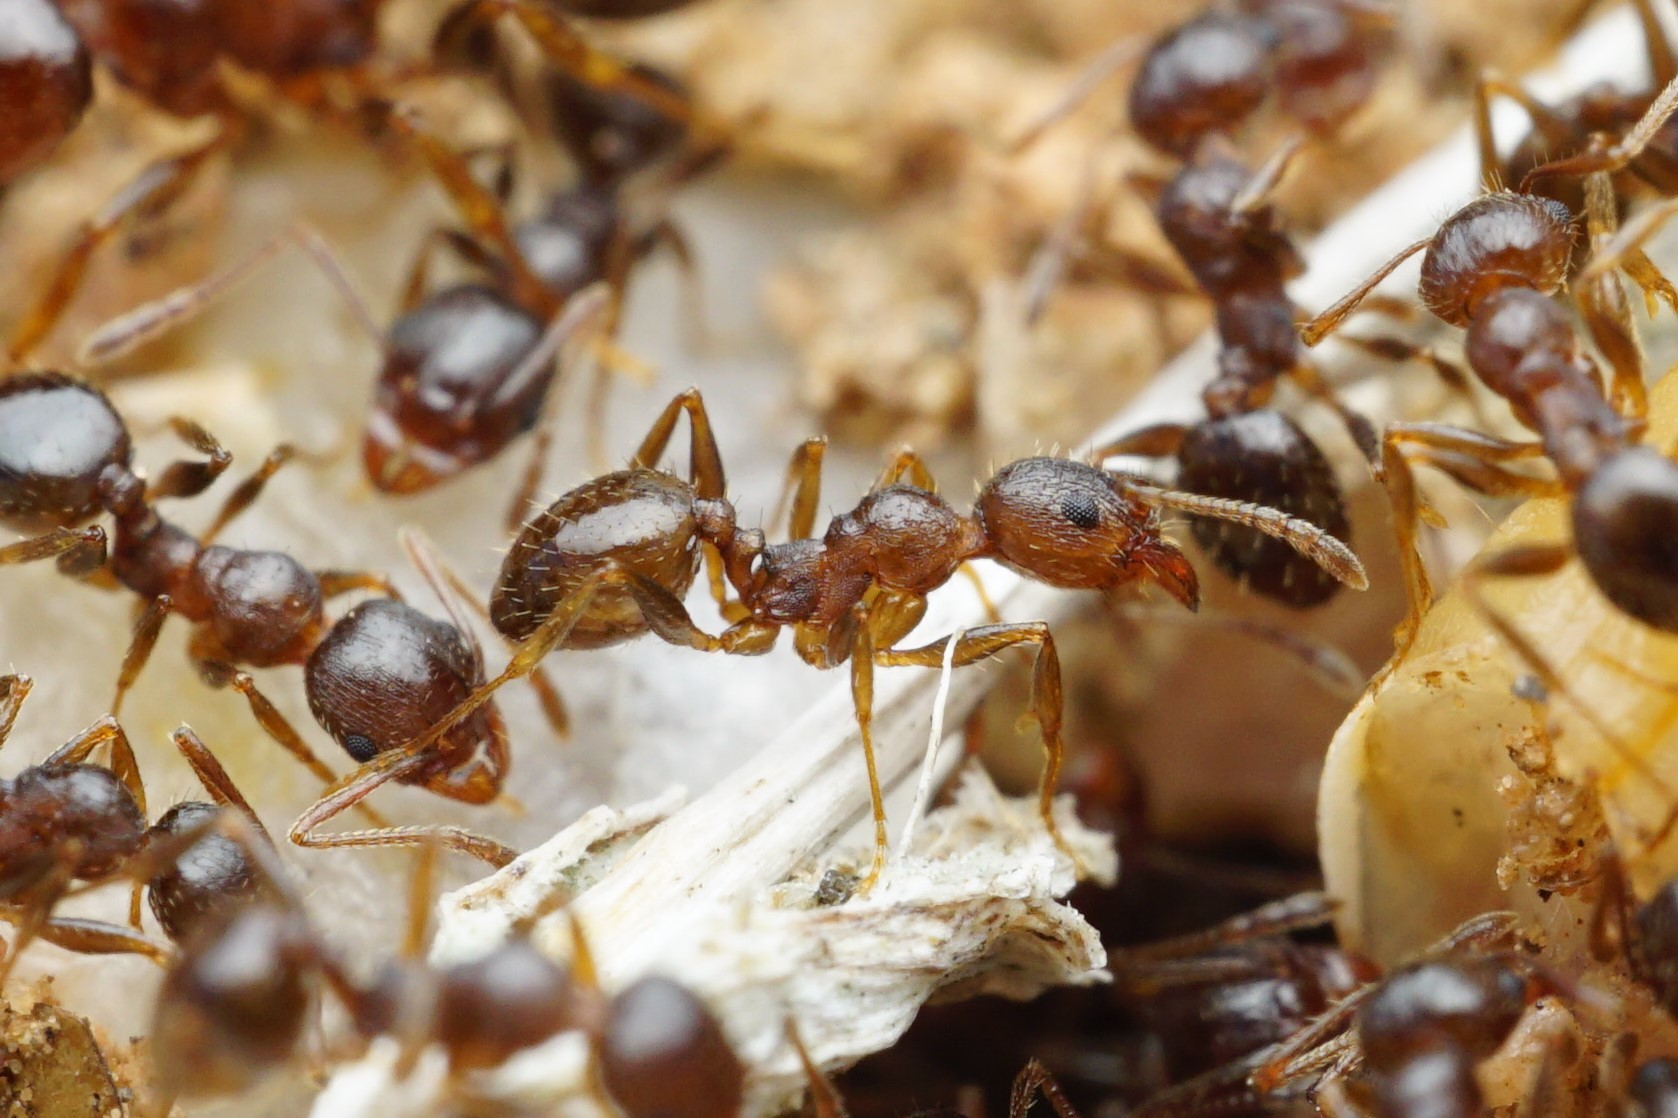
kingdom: Animalia
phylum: Arthropoda
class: Insecta
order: Hymenoptera
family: Formicidae
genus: Pheidole
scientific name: Pheidole tetra
